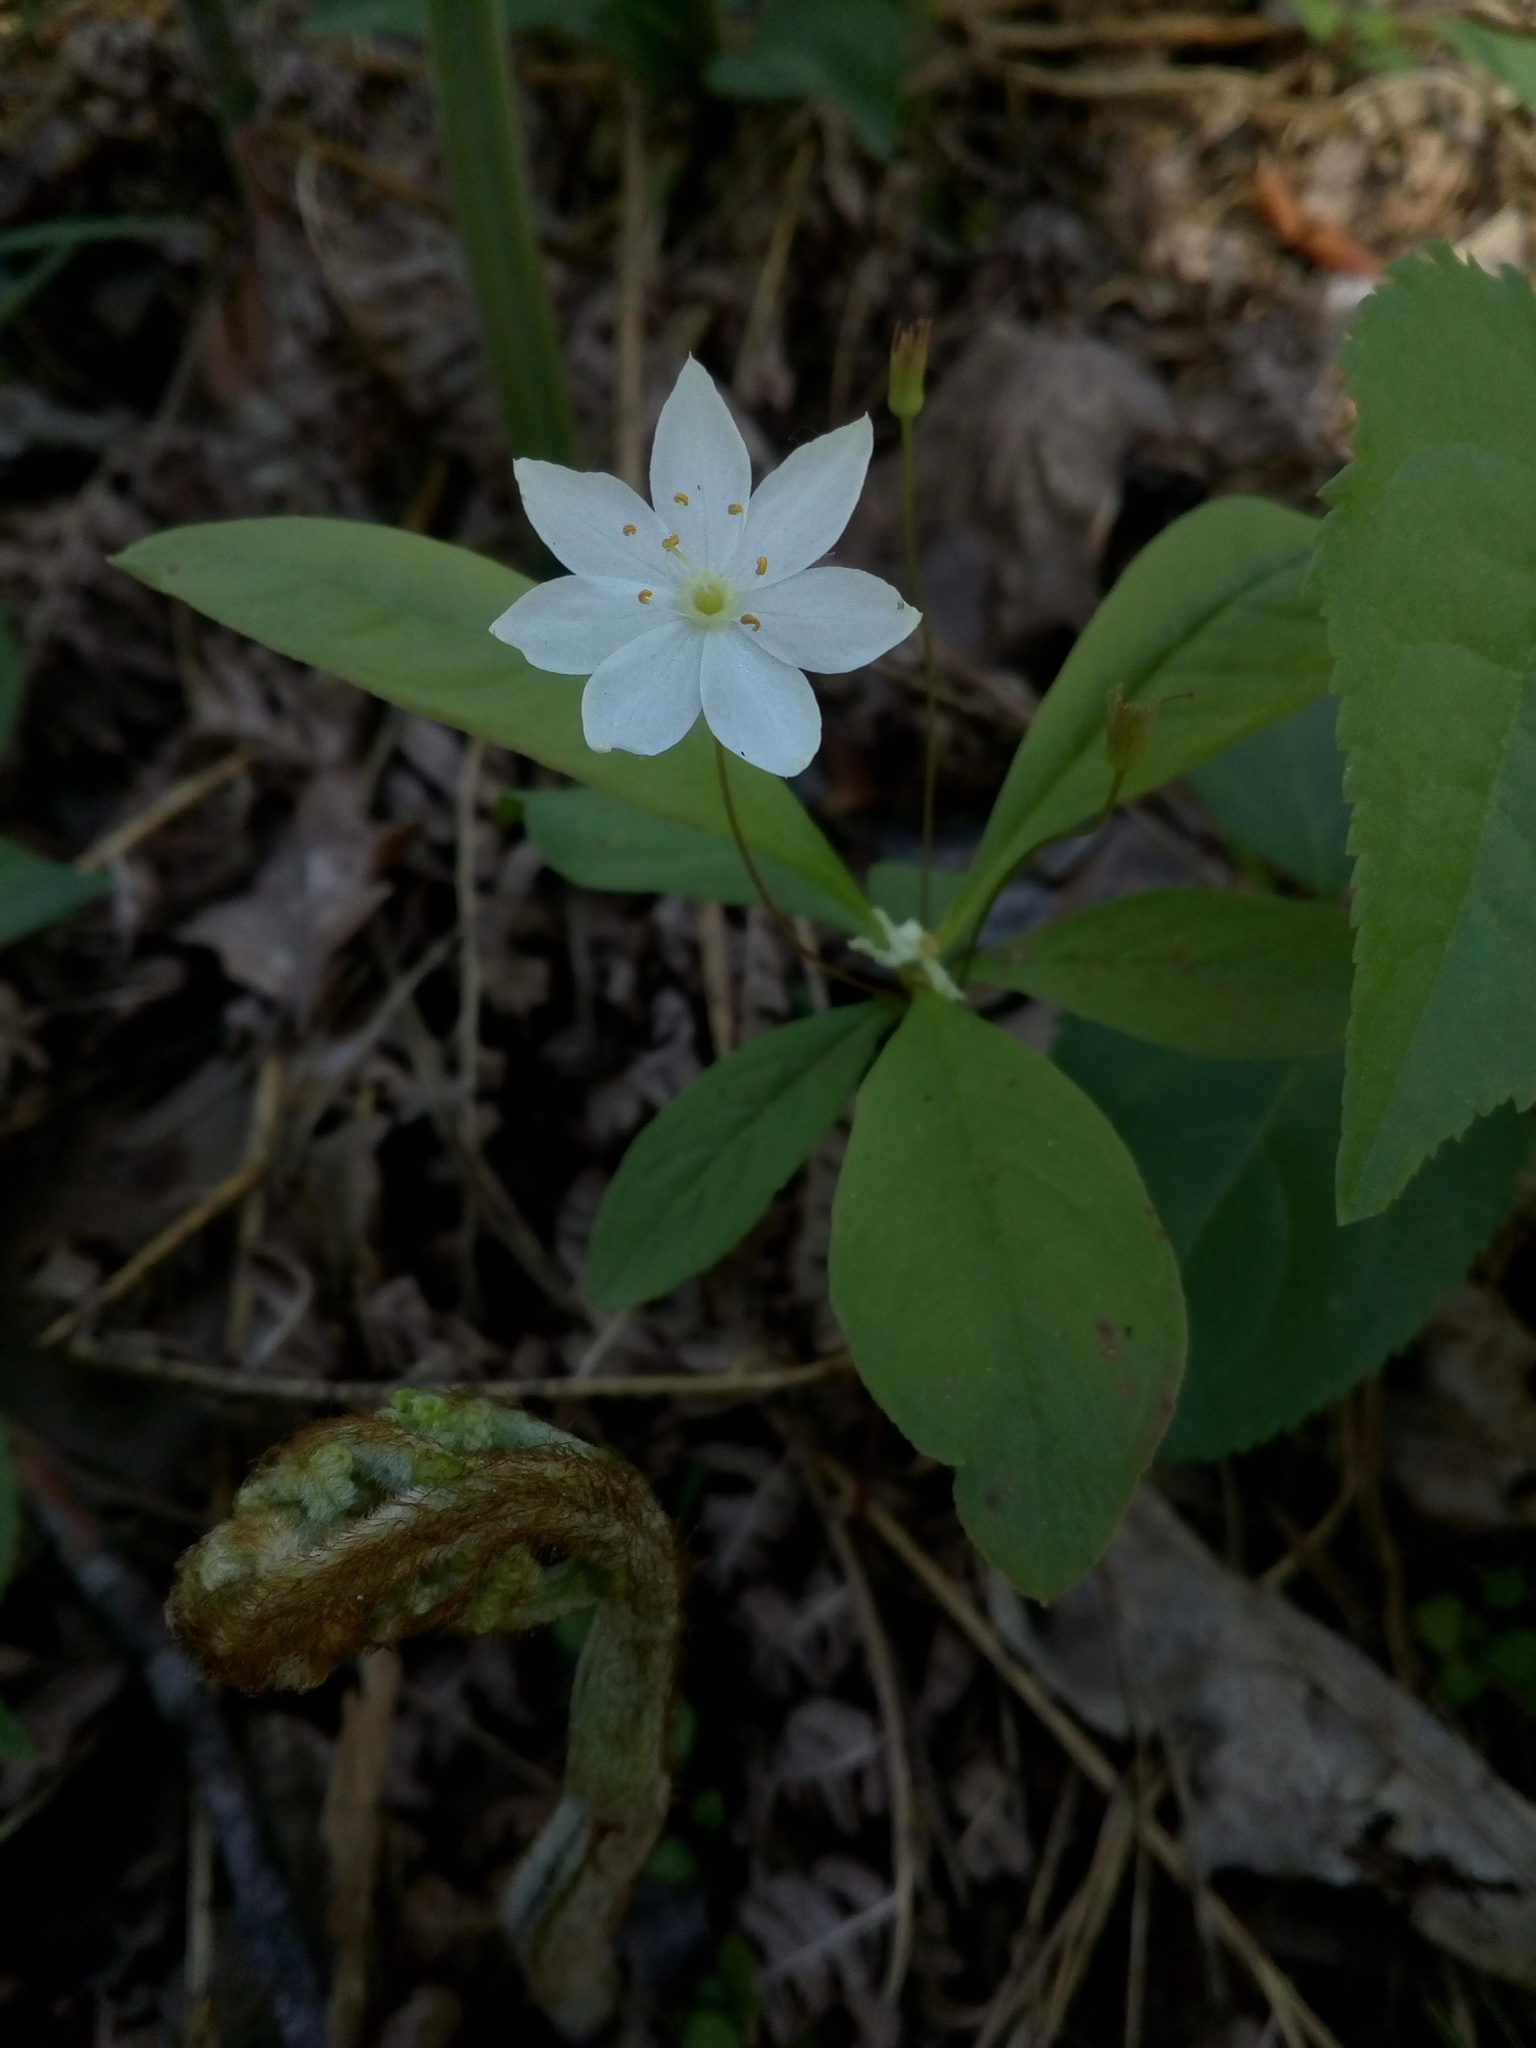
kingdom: Plantae
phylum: Tracheophyta
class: Magnoliopsida
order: Ericales
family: Primulaceae
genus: Lysimachia
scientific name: Lysimachia europaea
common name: Arctic starflower
